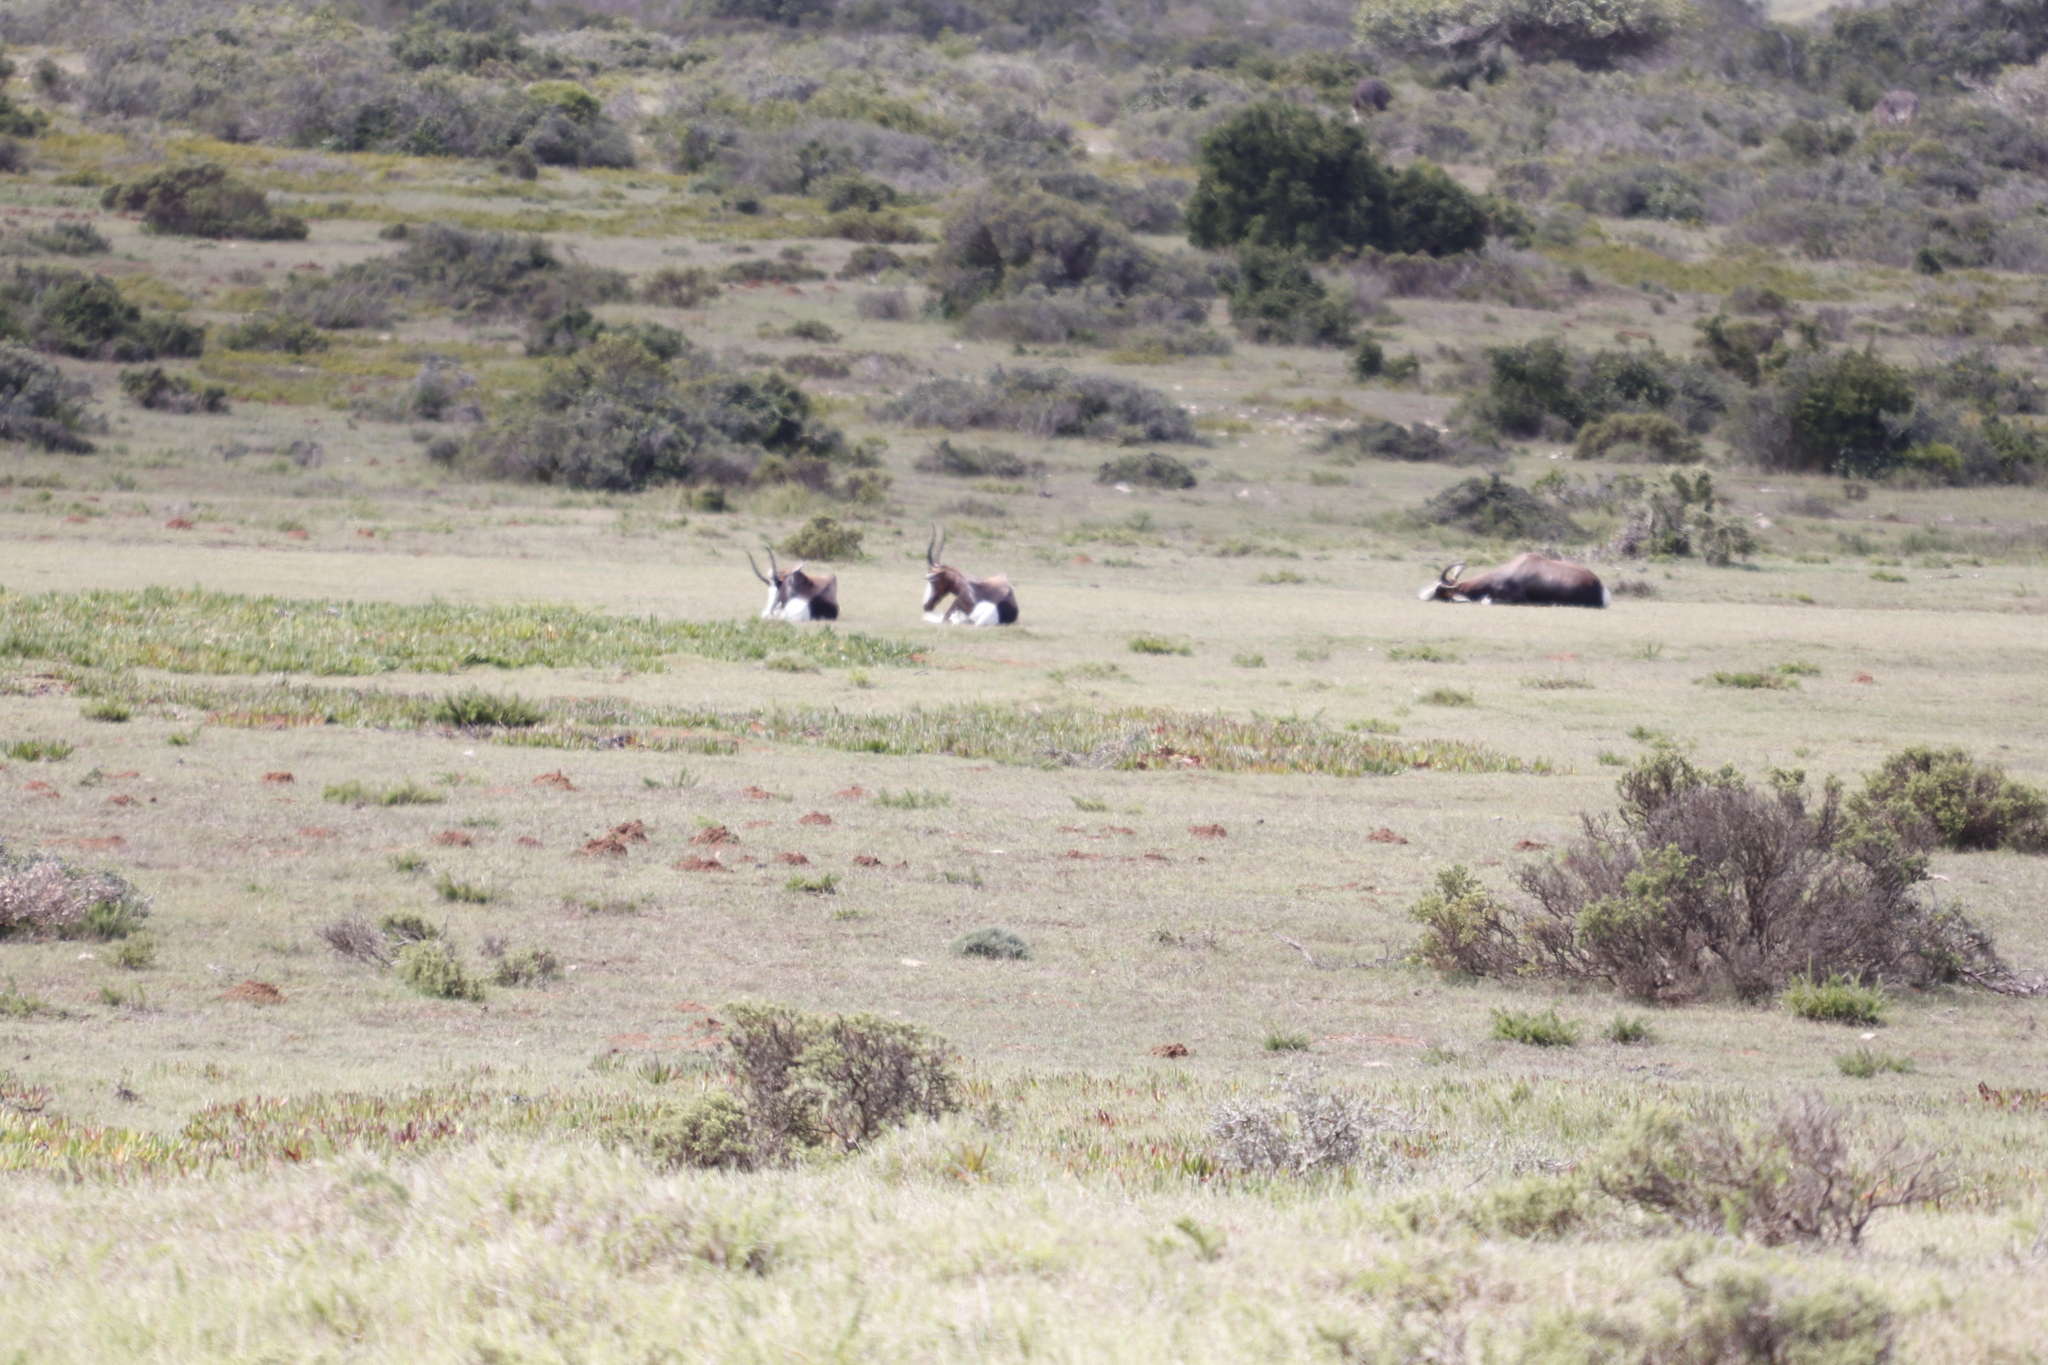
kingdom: Animalia
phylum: Chordata
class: Mammalia
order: Artiodactyla
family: Bovidae
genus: Damaliscus
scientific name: Damaliscus pygargus
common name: Bontebok
